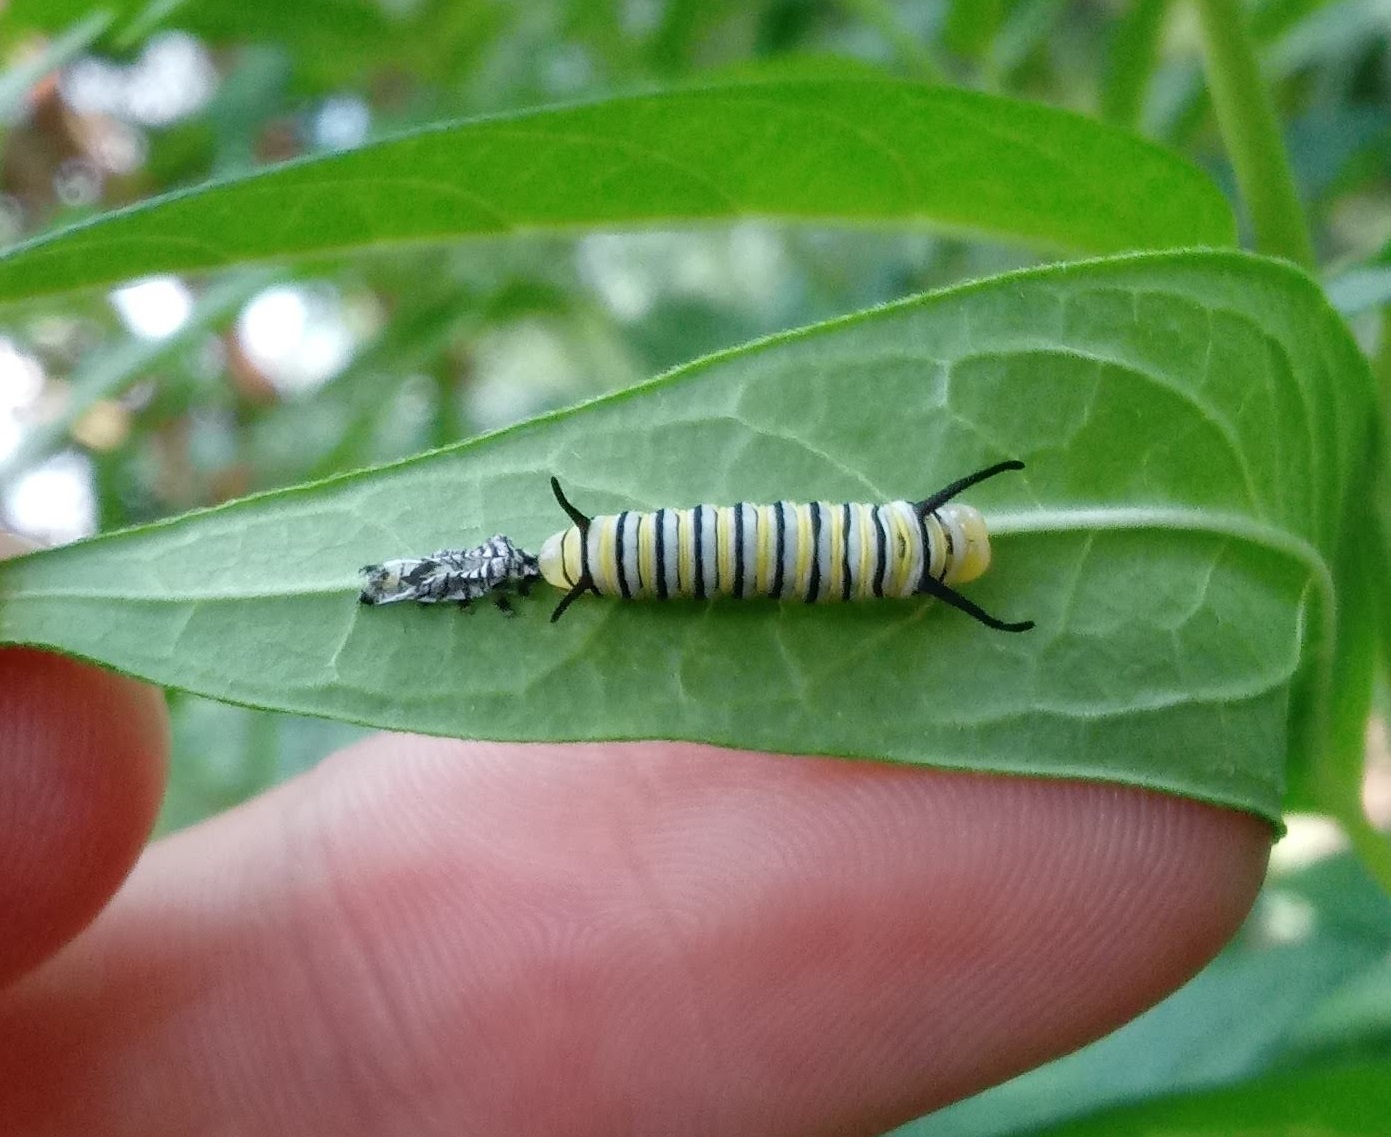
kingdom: Animalia
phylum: Arthropoda
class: Insecta
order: Lepidoptera
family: Nymphalidae
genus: Danaus
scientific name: Danaus plexippus
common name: Monarch
